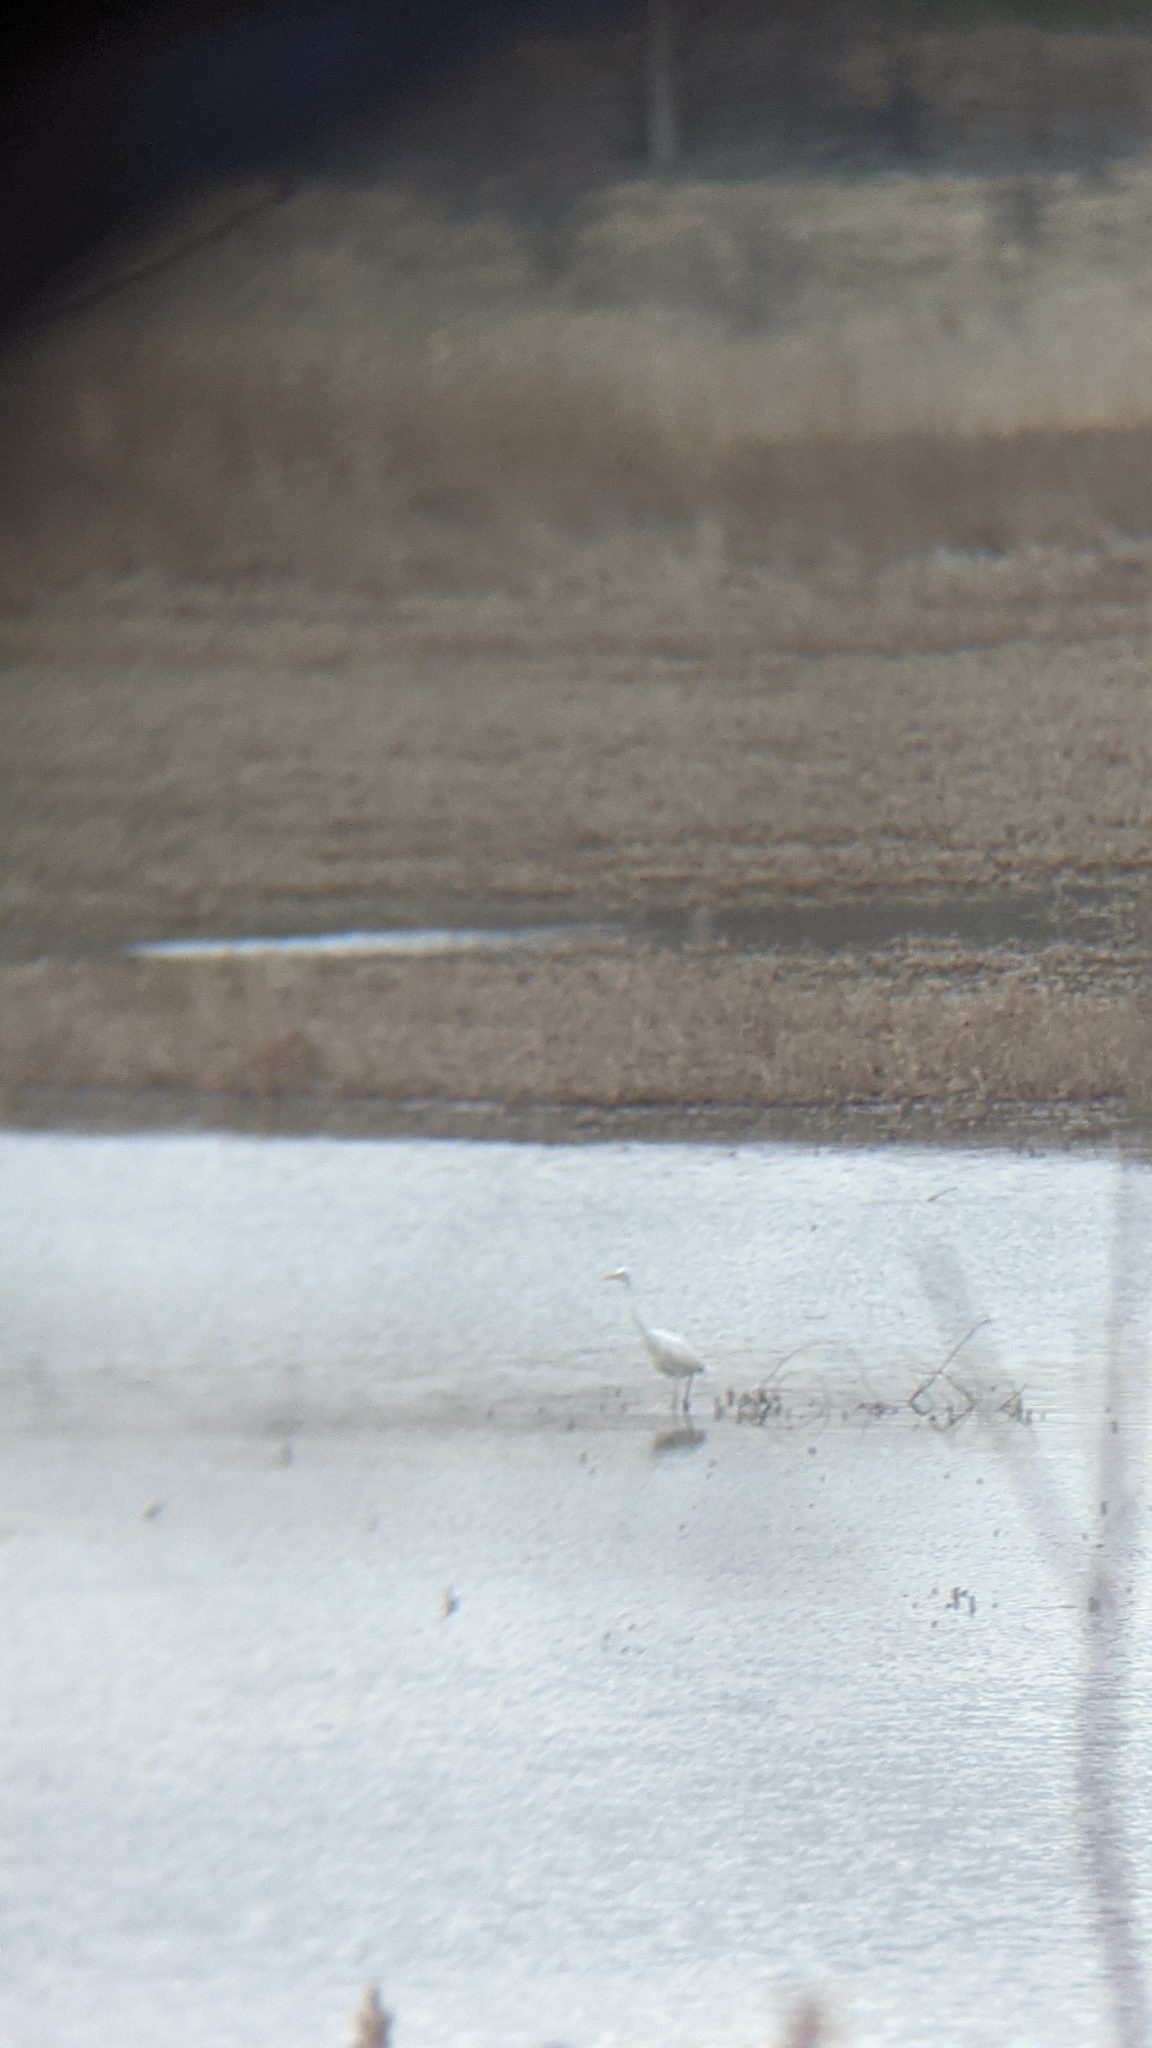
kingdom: Animalia
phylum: Chordata
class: Aves
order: Pelecaniformes
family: Ardeidae
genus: Ardea
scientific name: Ardea alba
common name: Great egret
